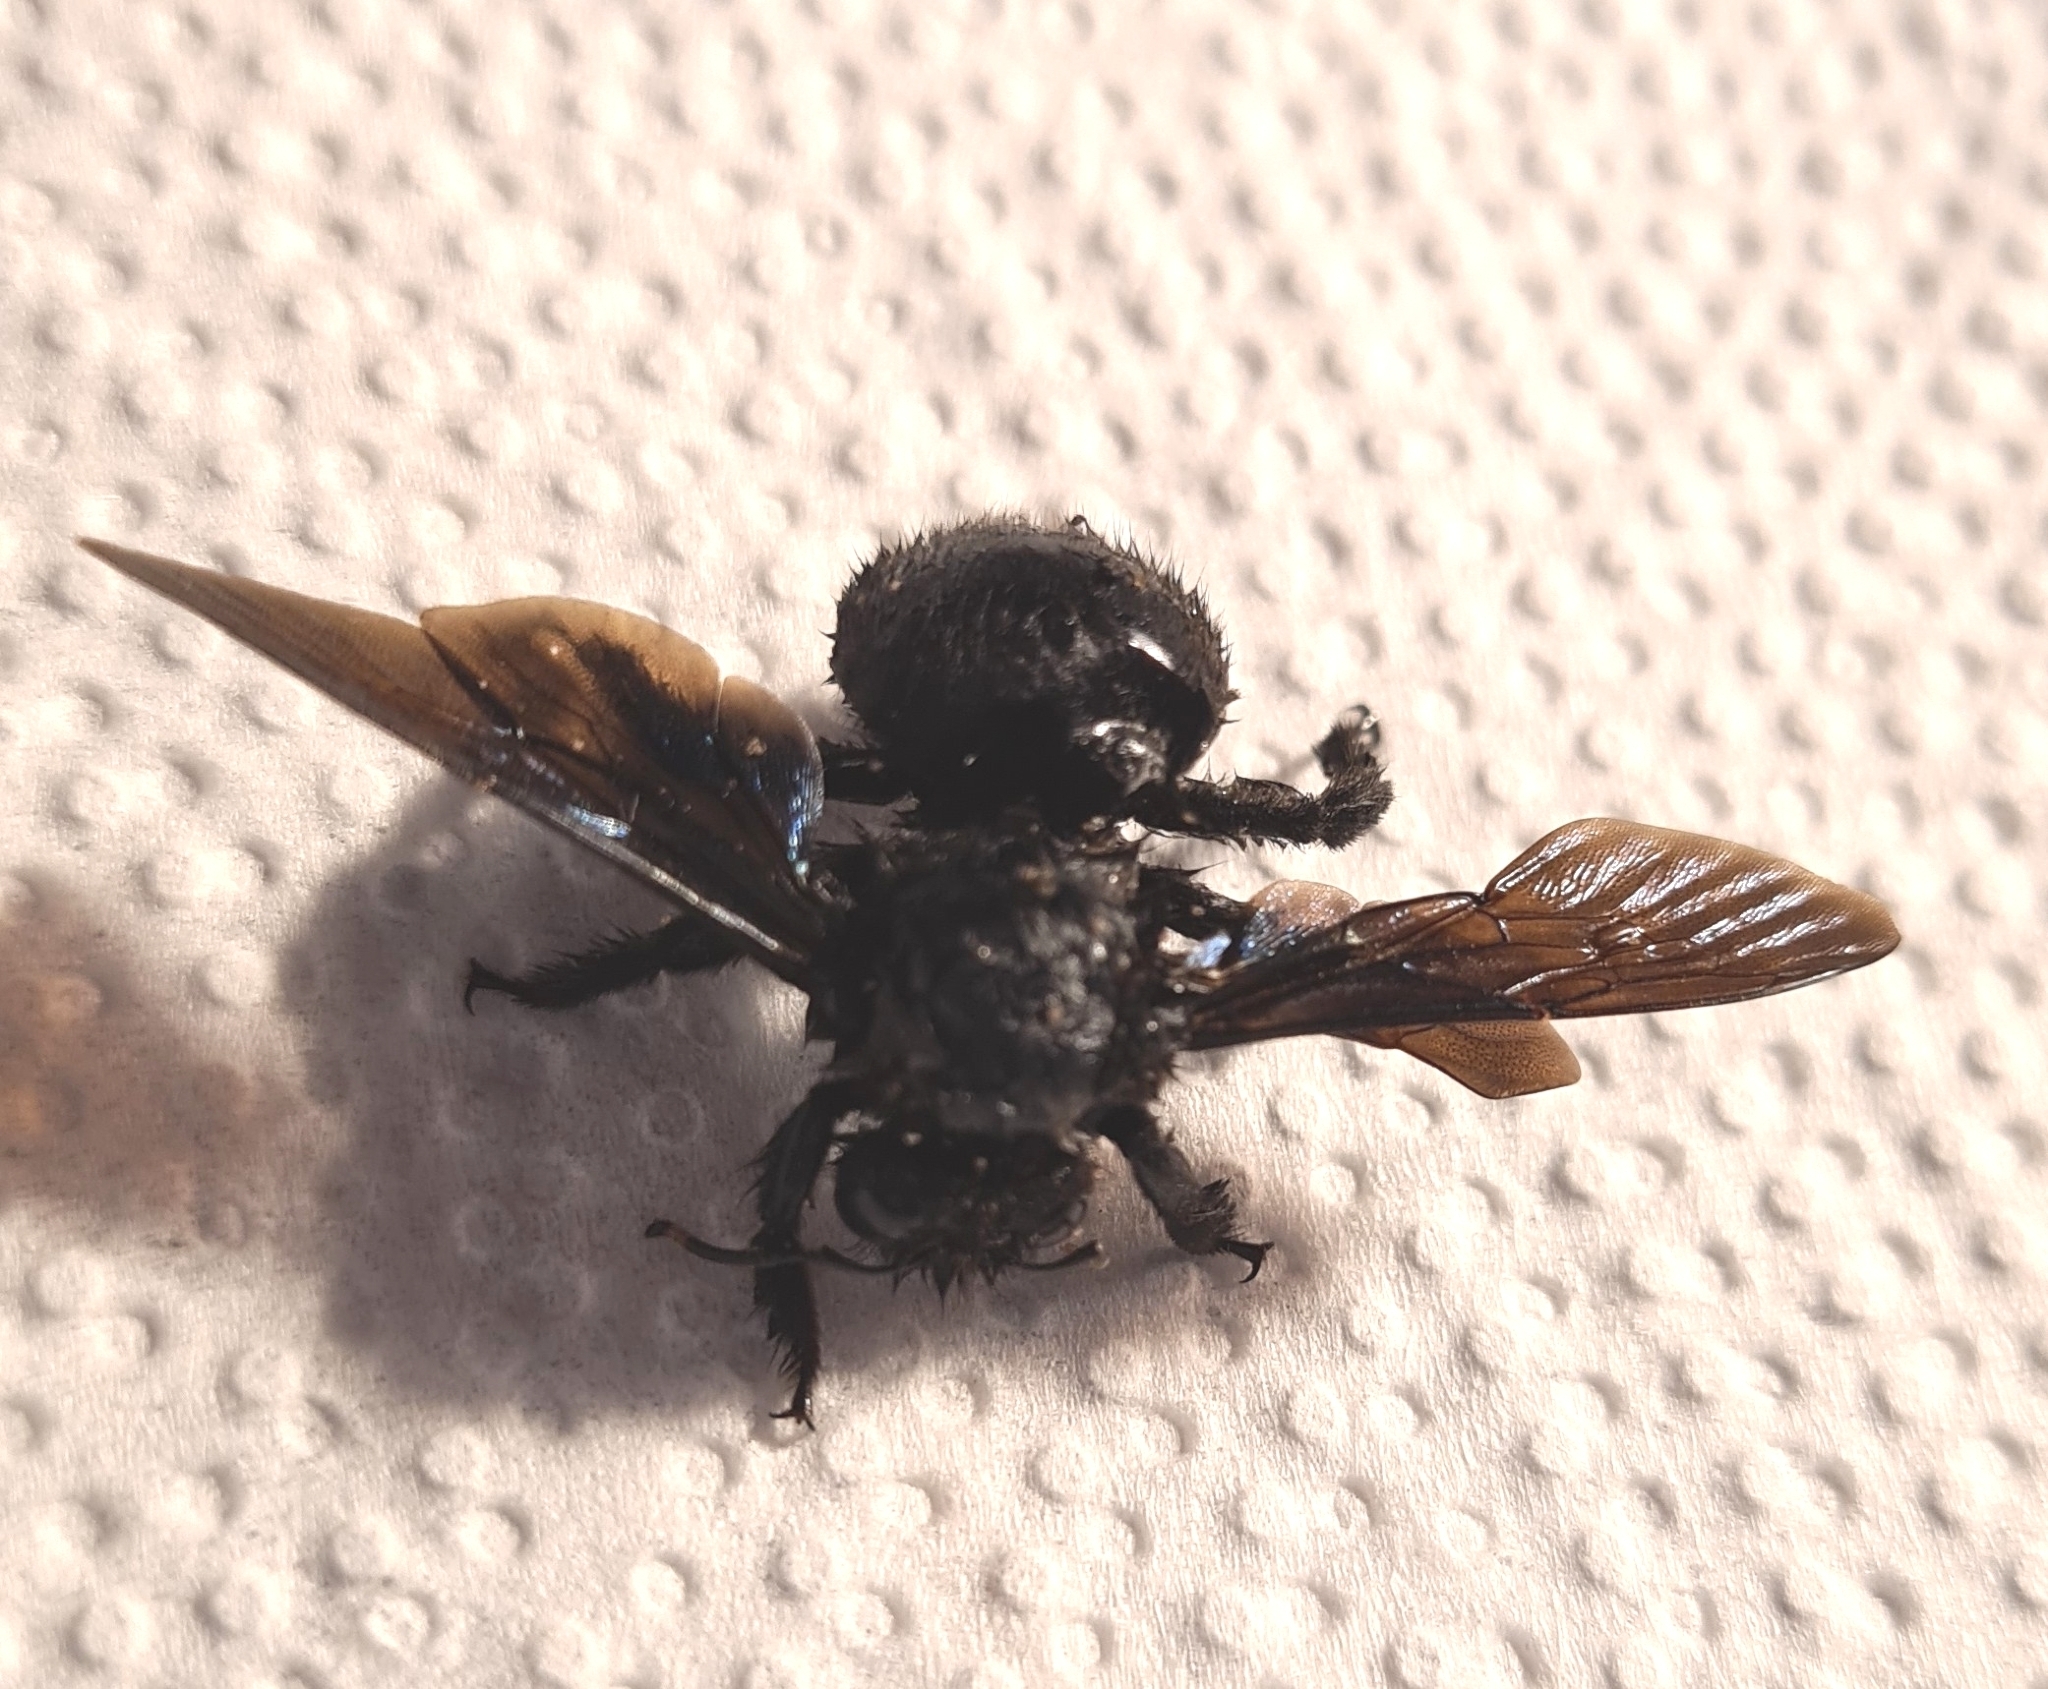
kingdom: Animalia
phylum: Arthropoda
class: Insecta
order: Hymenoptera
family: Apidae
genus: Xylocopa
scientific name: Xylocopa violacea
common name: Violet carpenter bee
